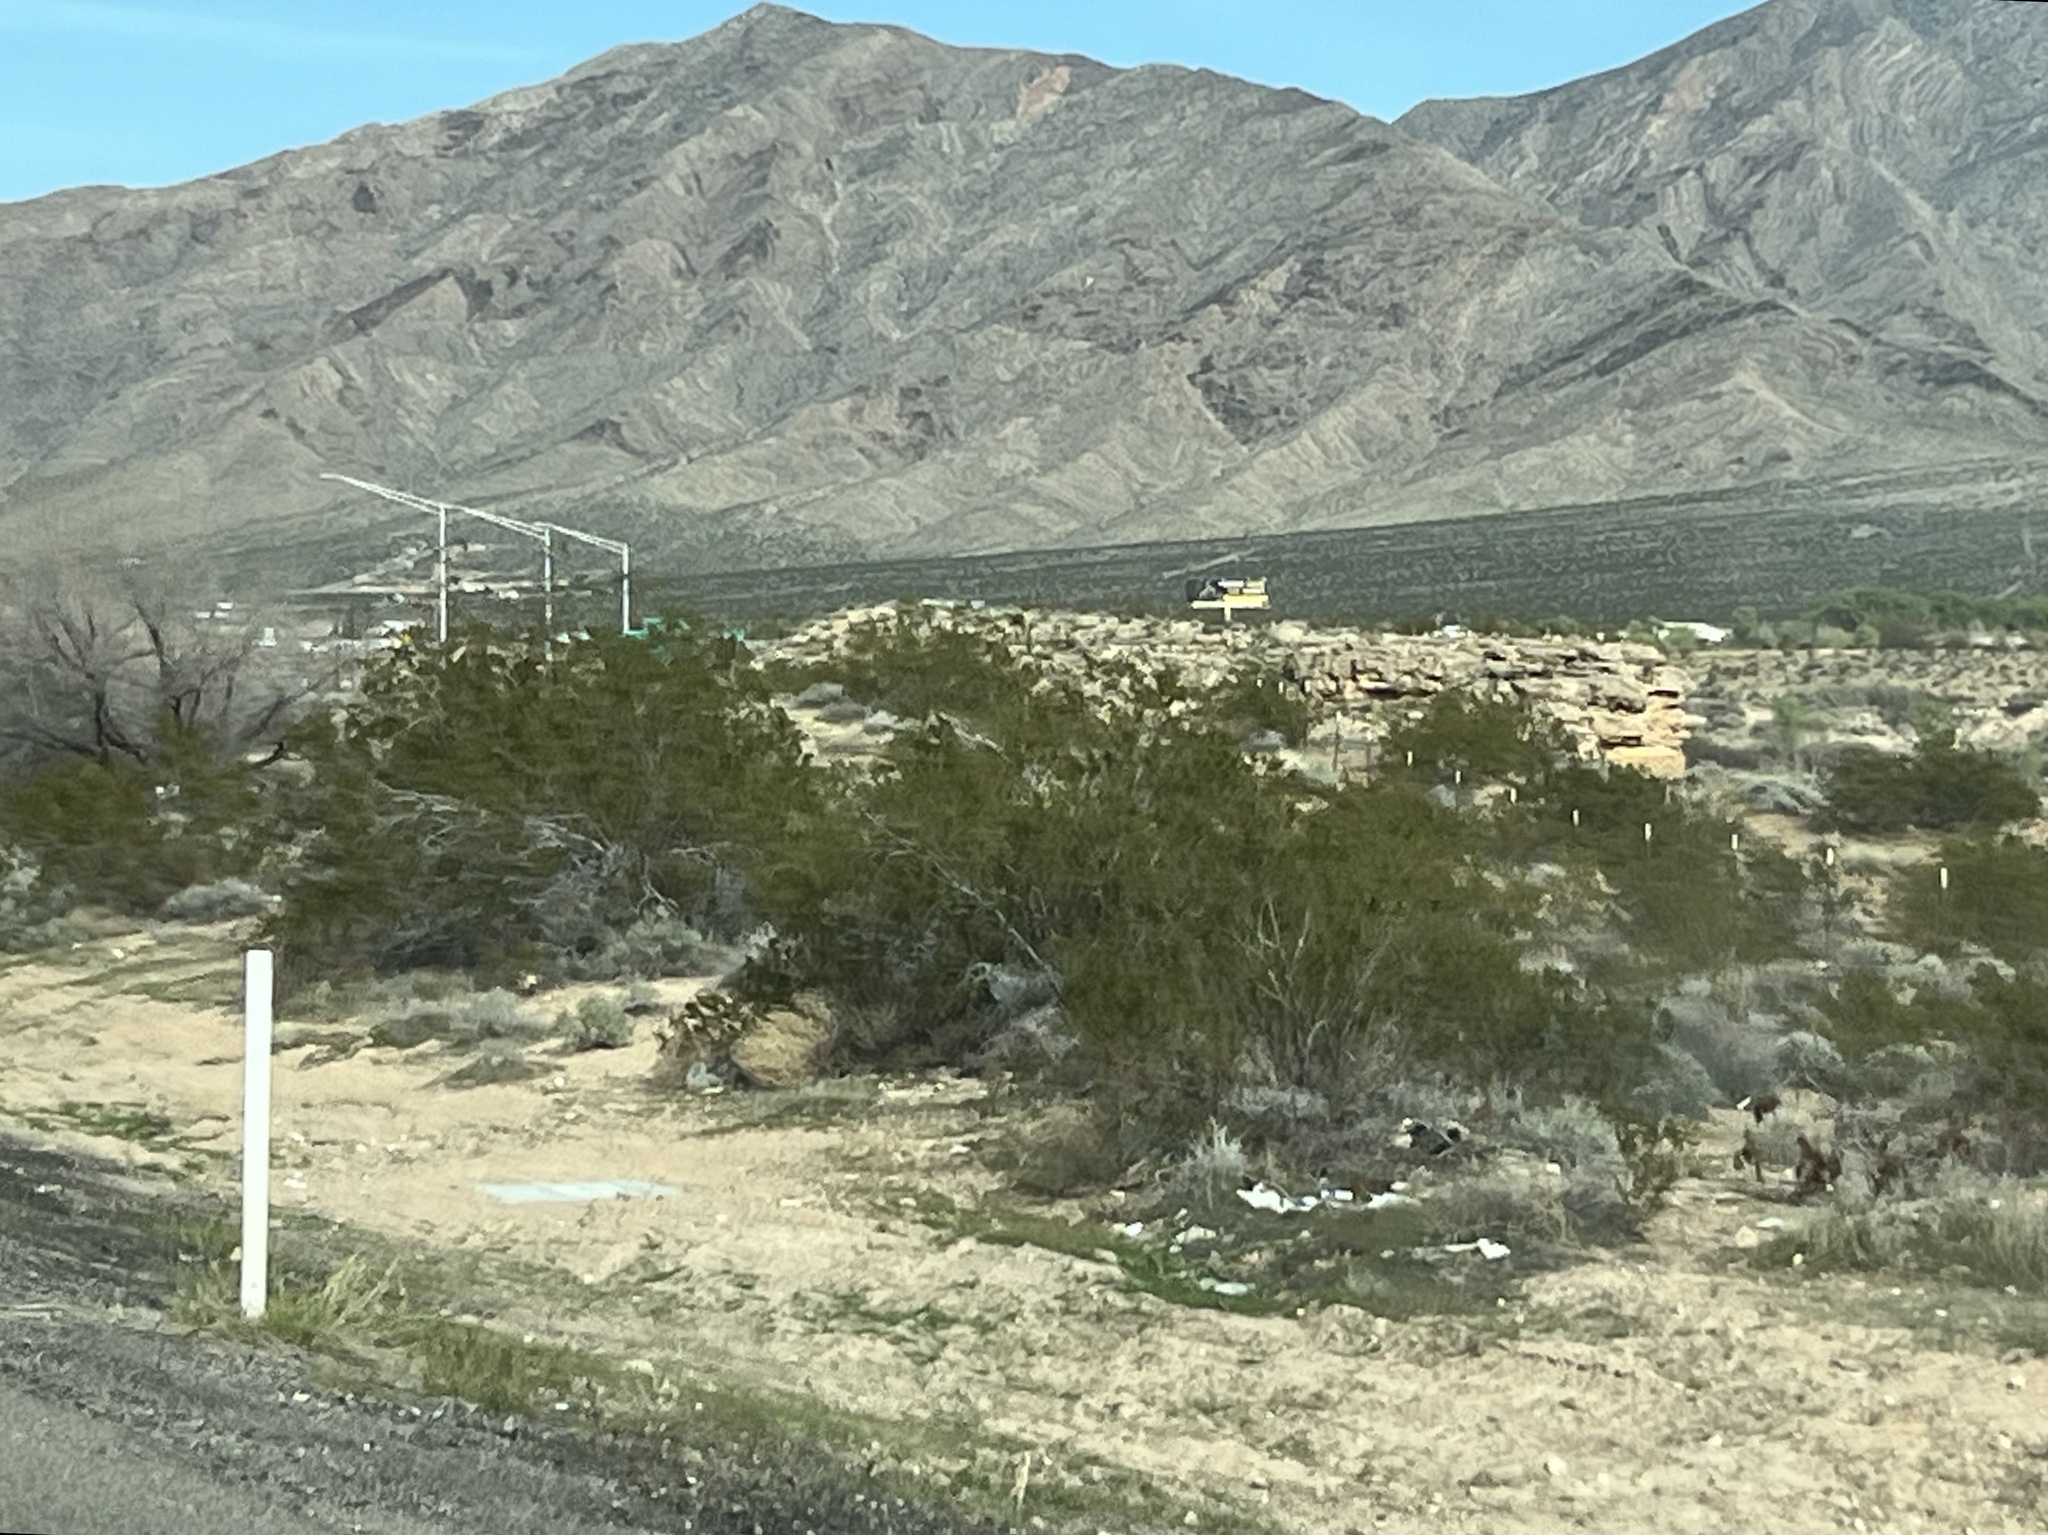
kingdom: Plantae
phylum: Tracheophyta
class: Magnoliopsida
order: Zygophyllales
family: Zygophyllaceae
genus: Larrea
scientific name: Larrea tridentata
